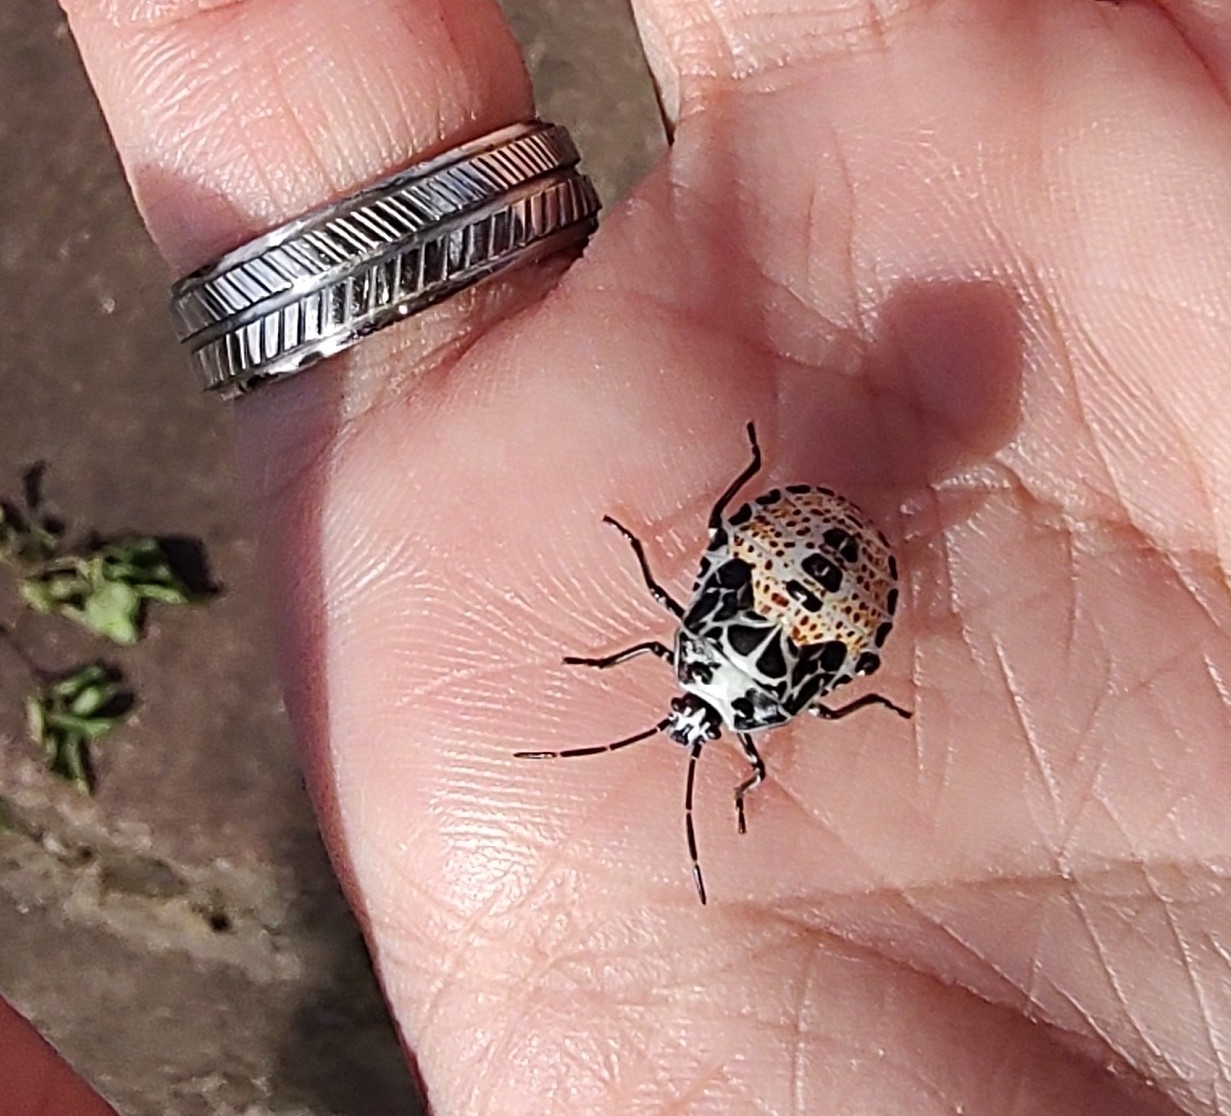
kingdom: Animalia
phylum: Arthropoda
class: Insecta
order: Hemiptera
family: Pentatomidae
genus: Runibia
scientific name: Runibia perspicua
